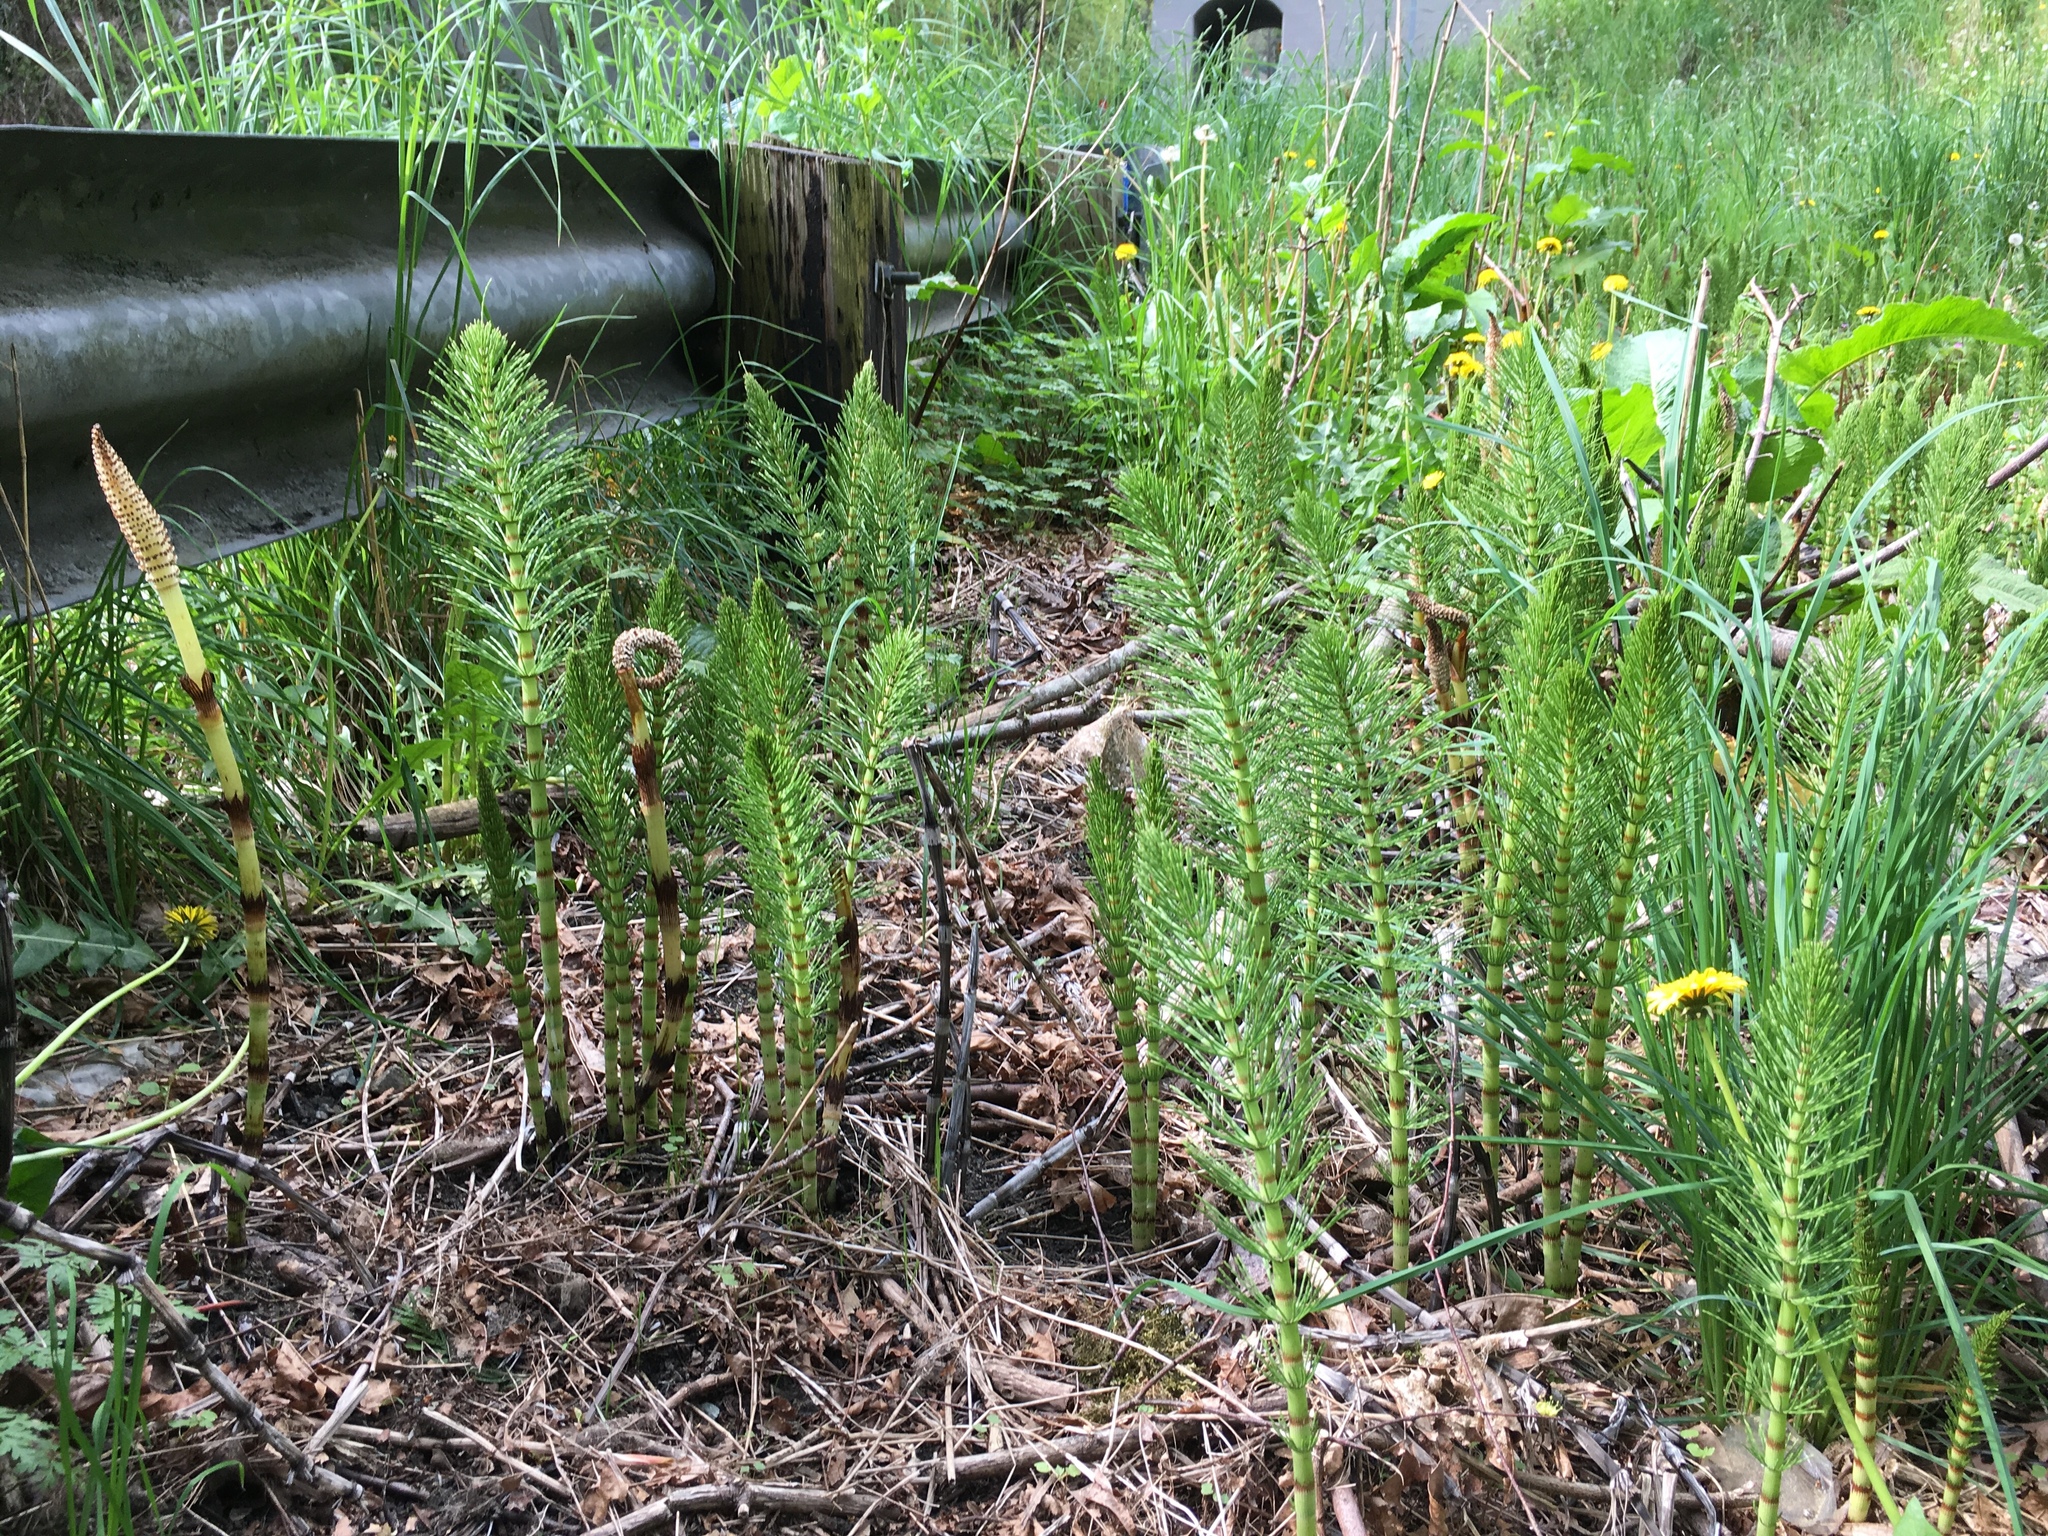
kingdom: Plantae
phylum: Tracheophyta
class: Polypodiopsida
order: Equisetales
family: Equisetaceae
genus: Equisetum
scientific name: Equisetum braunii
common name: Braun's horsetail
